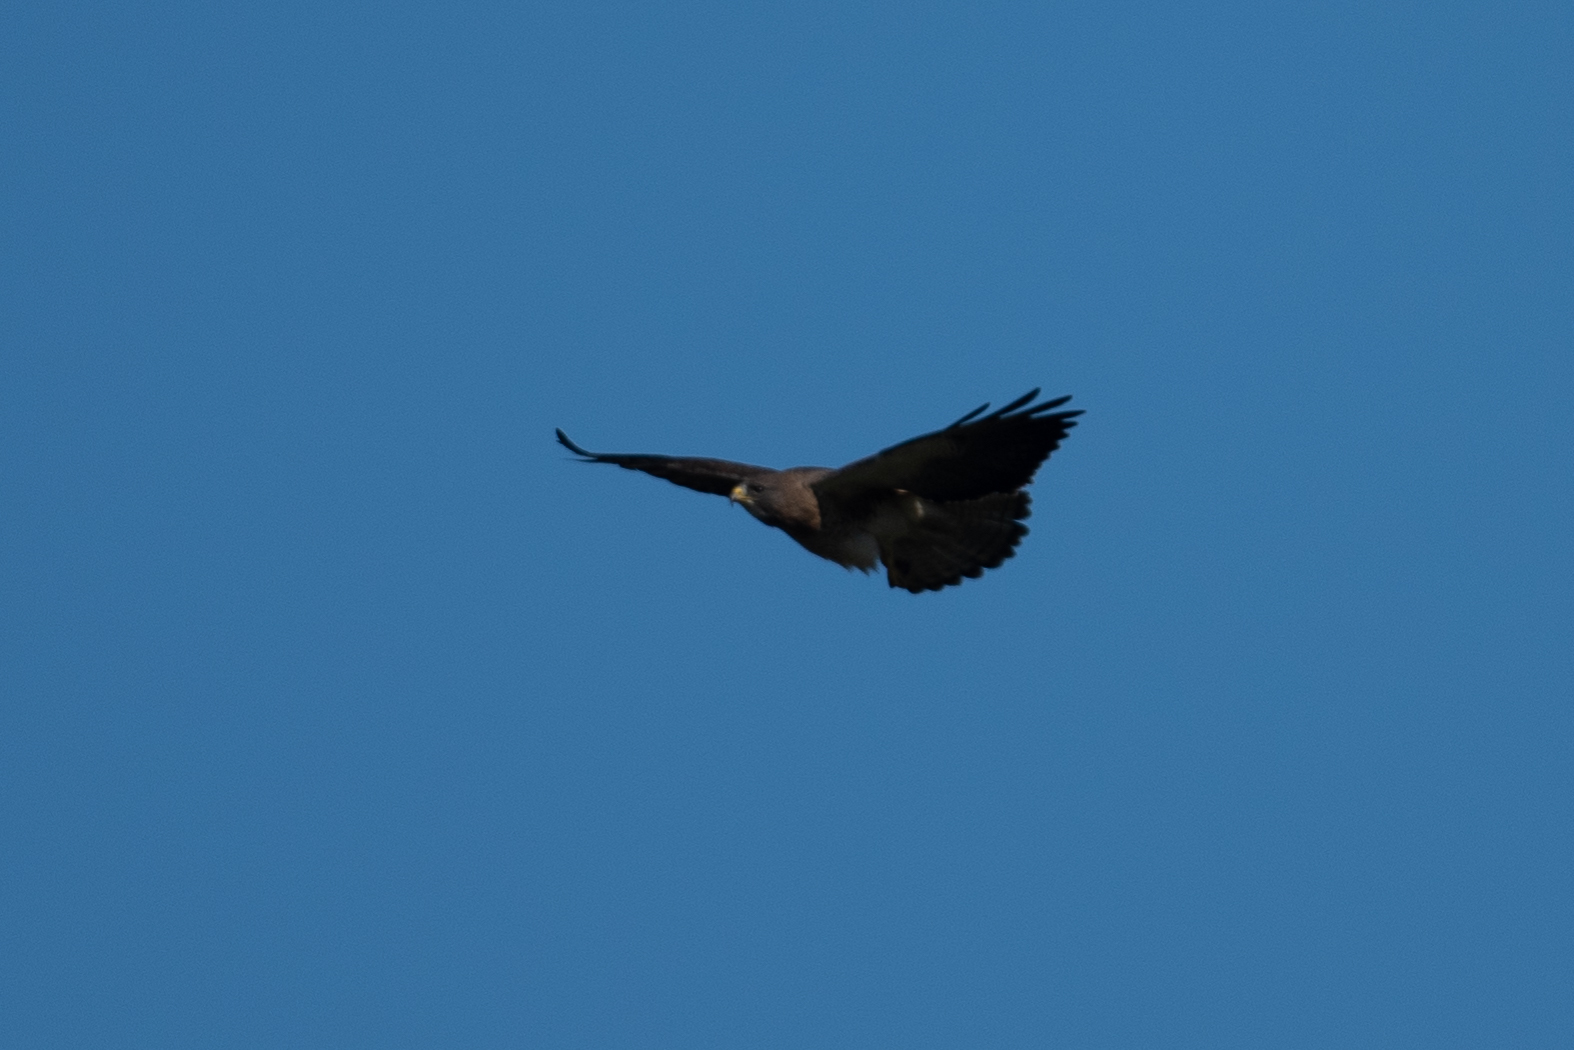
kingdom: Animalia
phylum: Chordata
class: Aves
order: Accipitriformes
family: Accipitridae
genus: Buteo
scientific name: Buteo swainsoni
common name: Swainson's hawk
